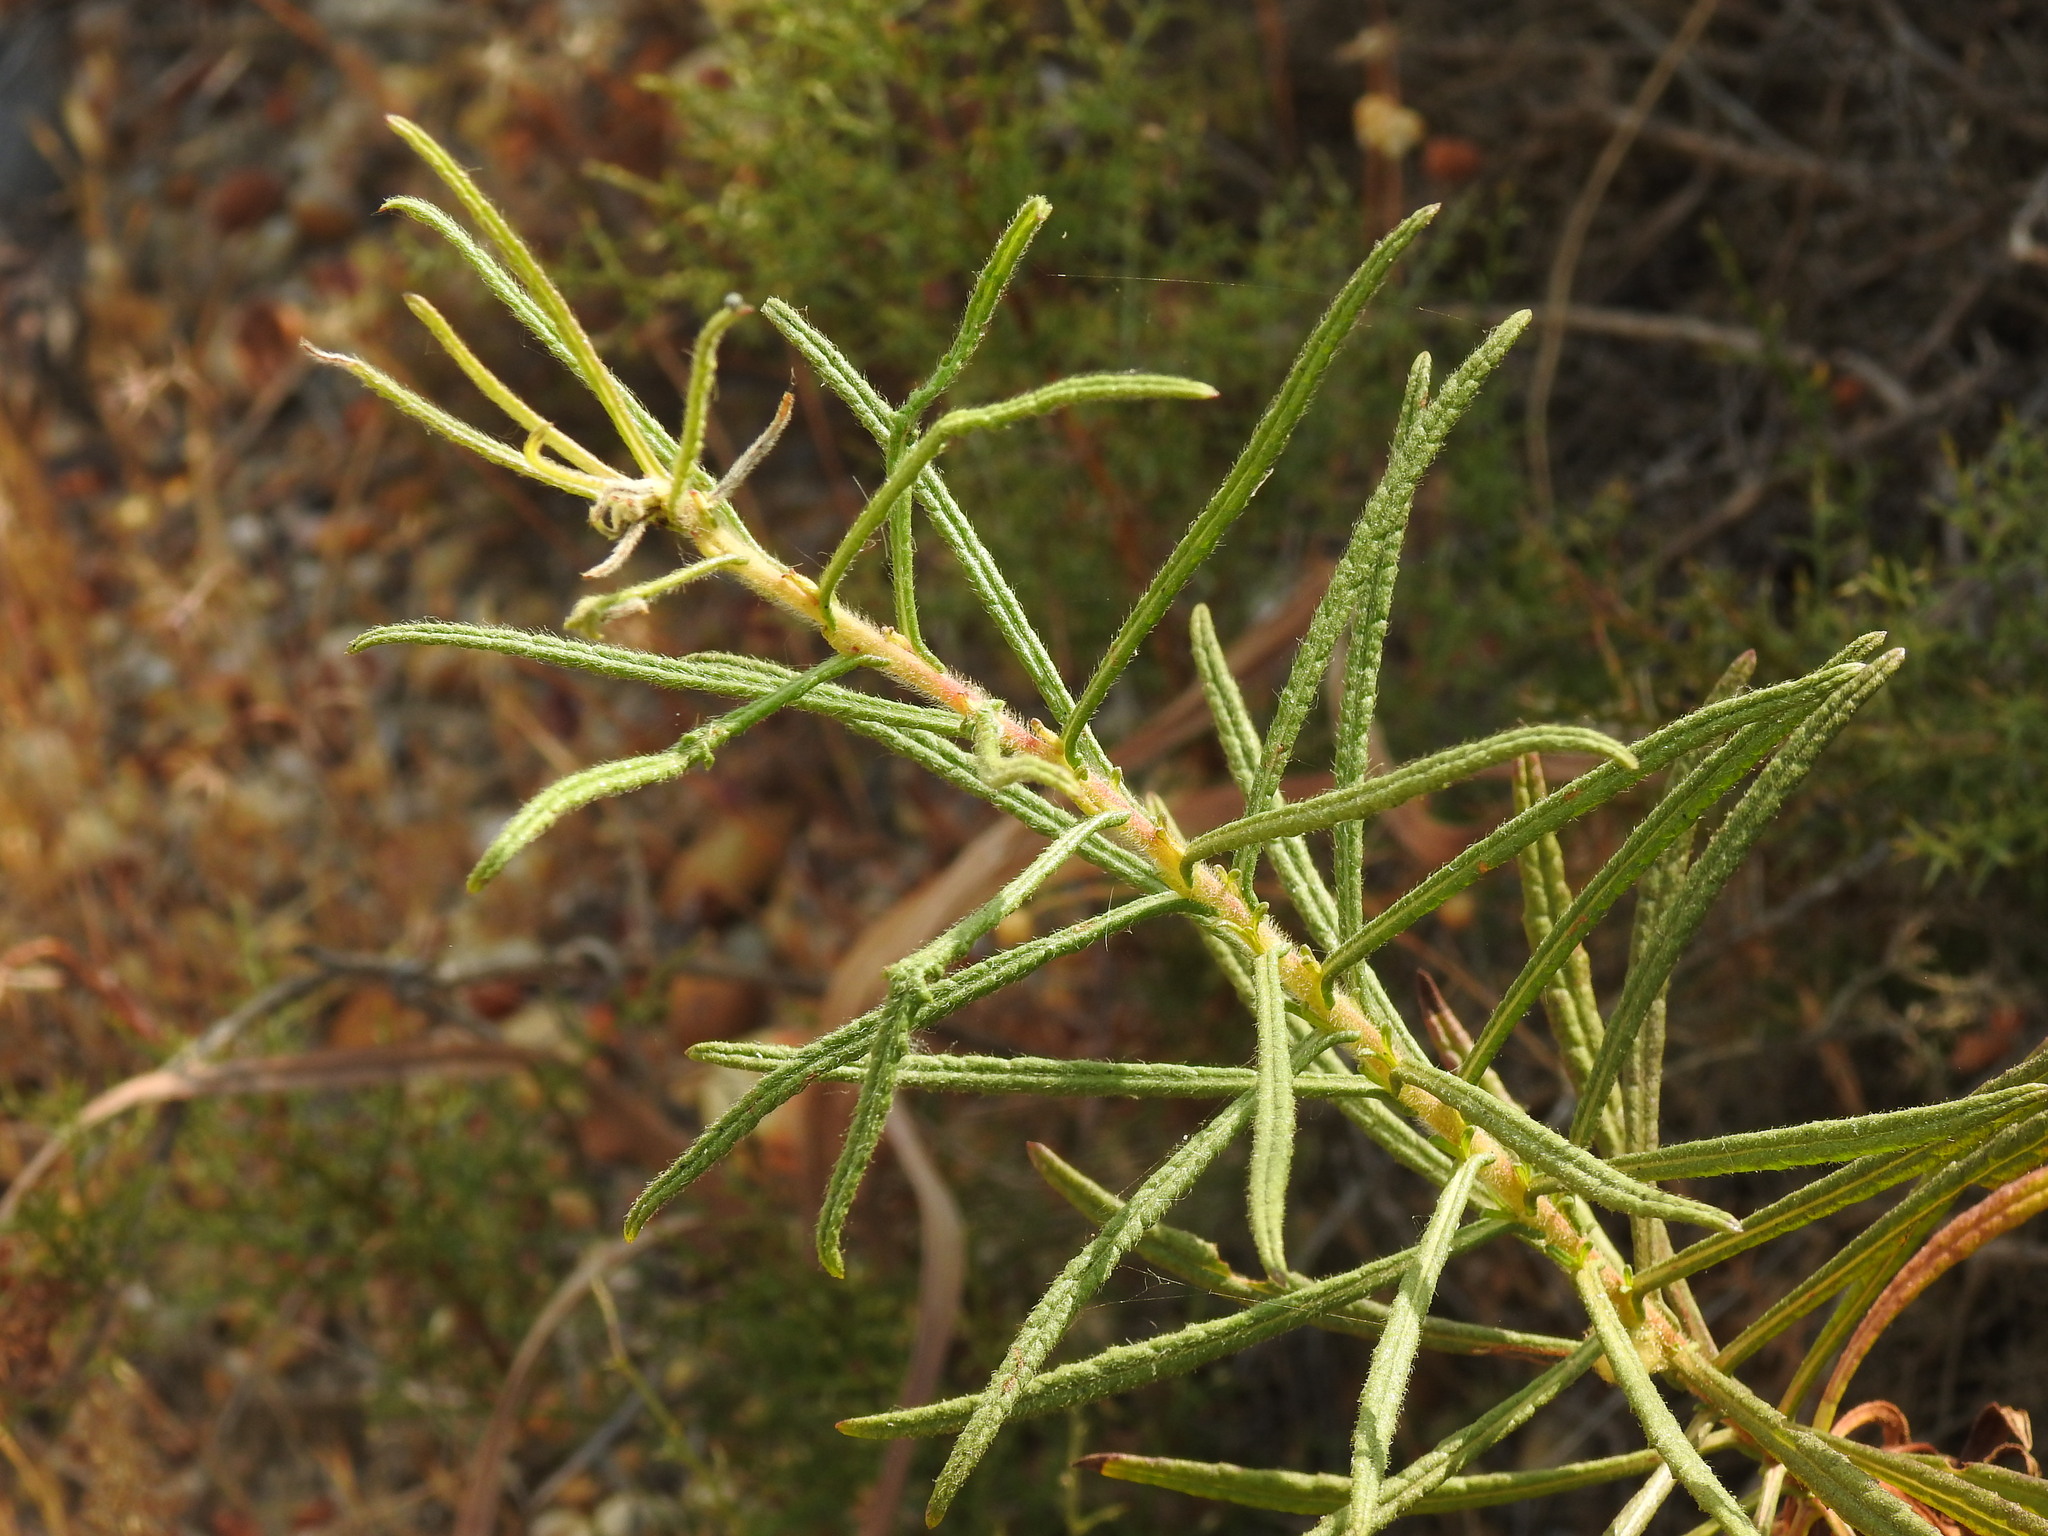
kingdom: Plantae
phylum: Tracheophyta
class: Magnoliopsida
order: Asterales
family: Asteraceae
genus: Dittrichia
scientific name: Dittrichia viscosa
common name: Woody fleabane
